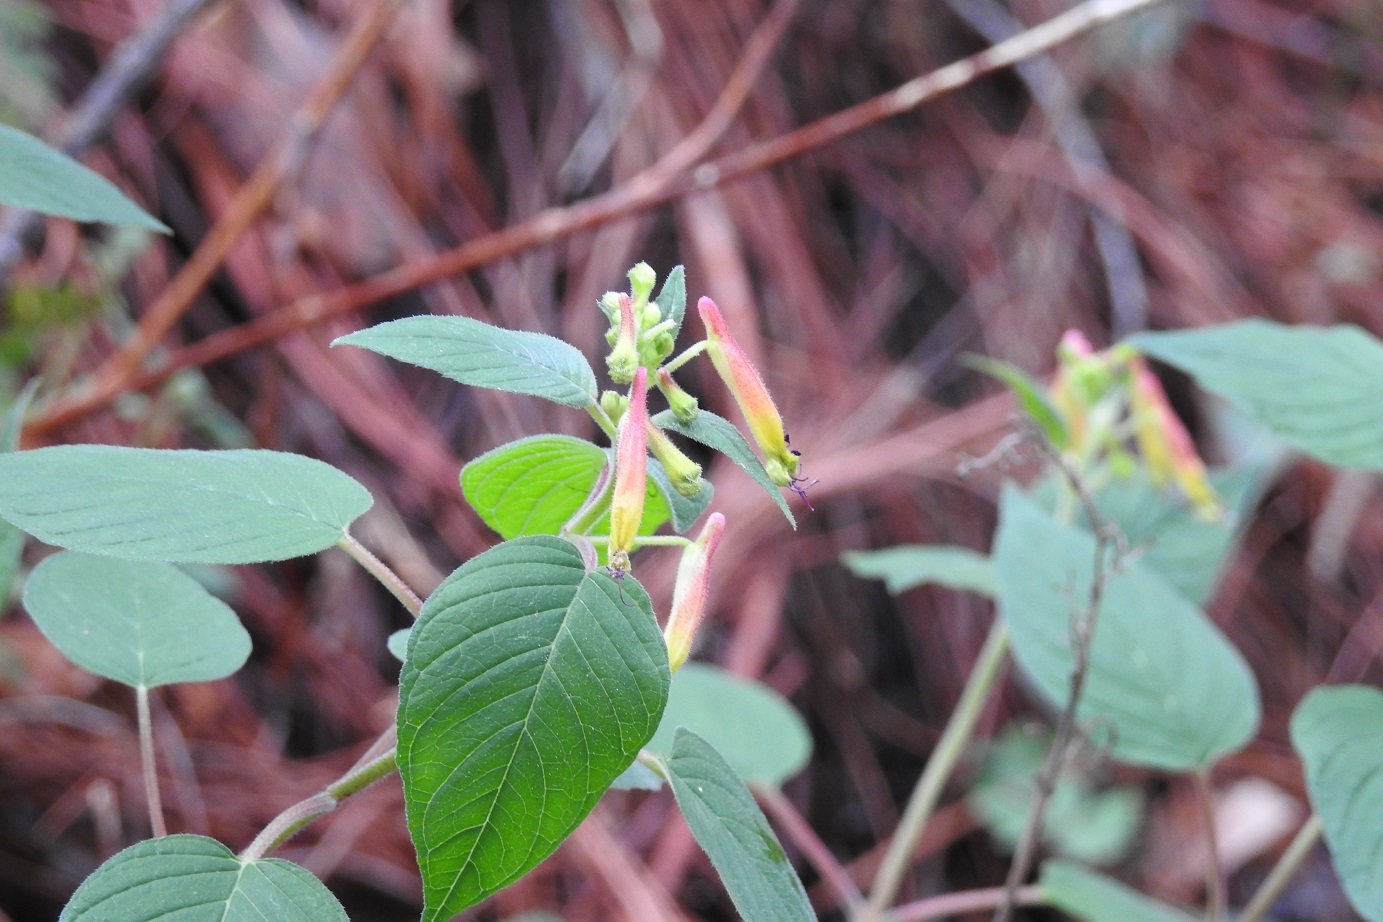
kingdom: Plantae
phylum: Tracheophyta
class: Magnoliopsida
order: Myrtales
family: Lythraceae
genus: Cuphea
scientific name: Cuphea cyanea
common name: Black-eyed cuphea
